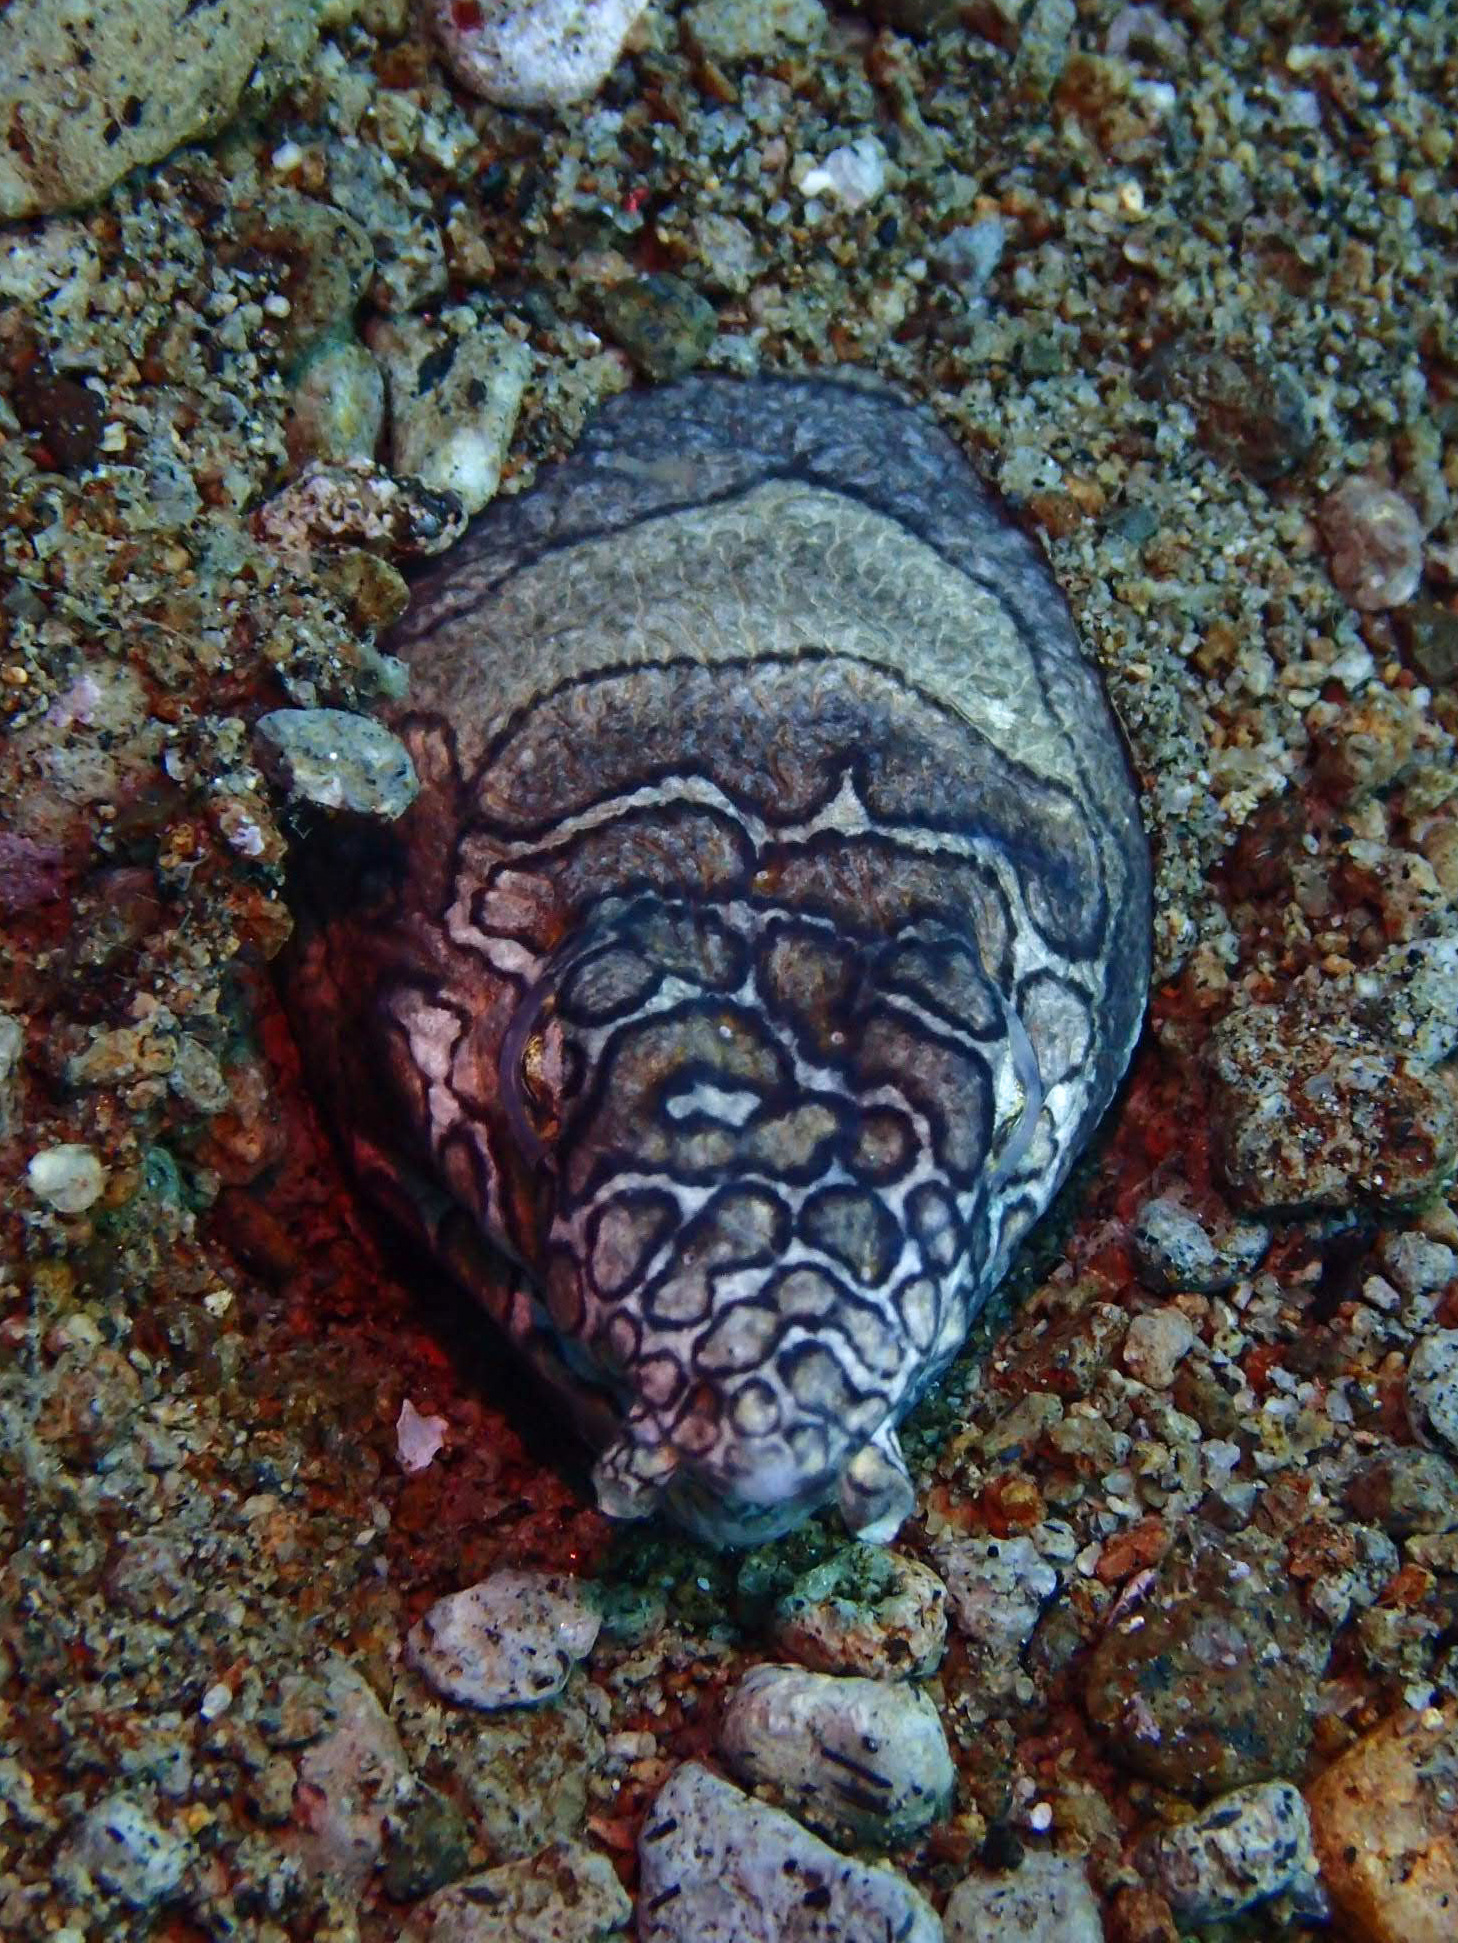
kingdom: Animalia
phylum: Chordata
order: Anguilliformes
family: Ophichthidae
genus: Ophichthus
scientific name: Ophichthus bonaparti
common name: Napoleon snake eel
